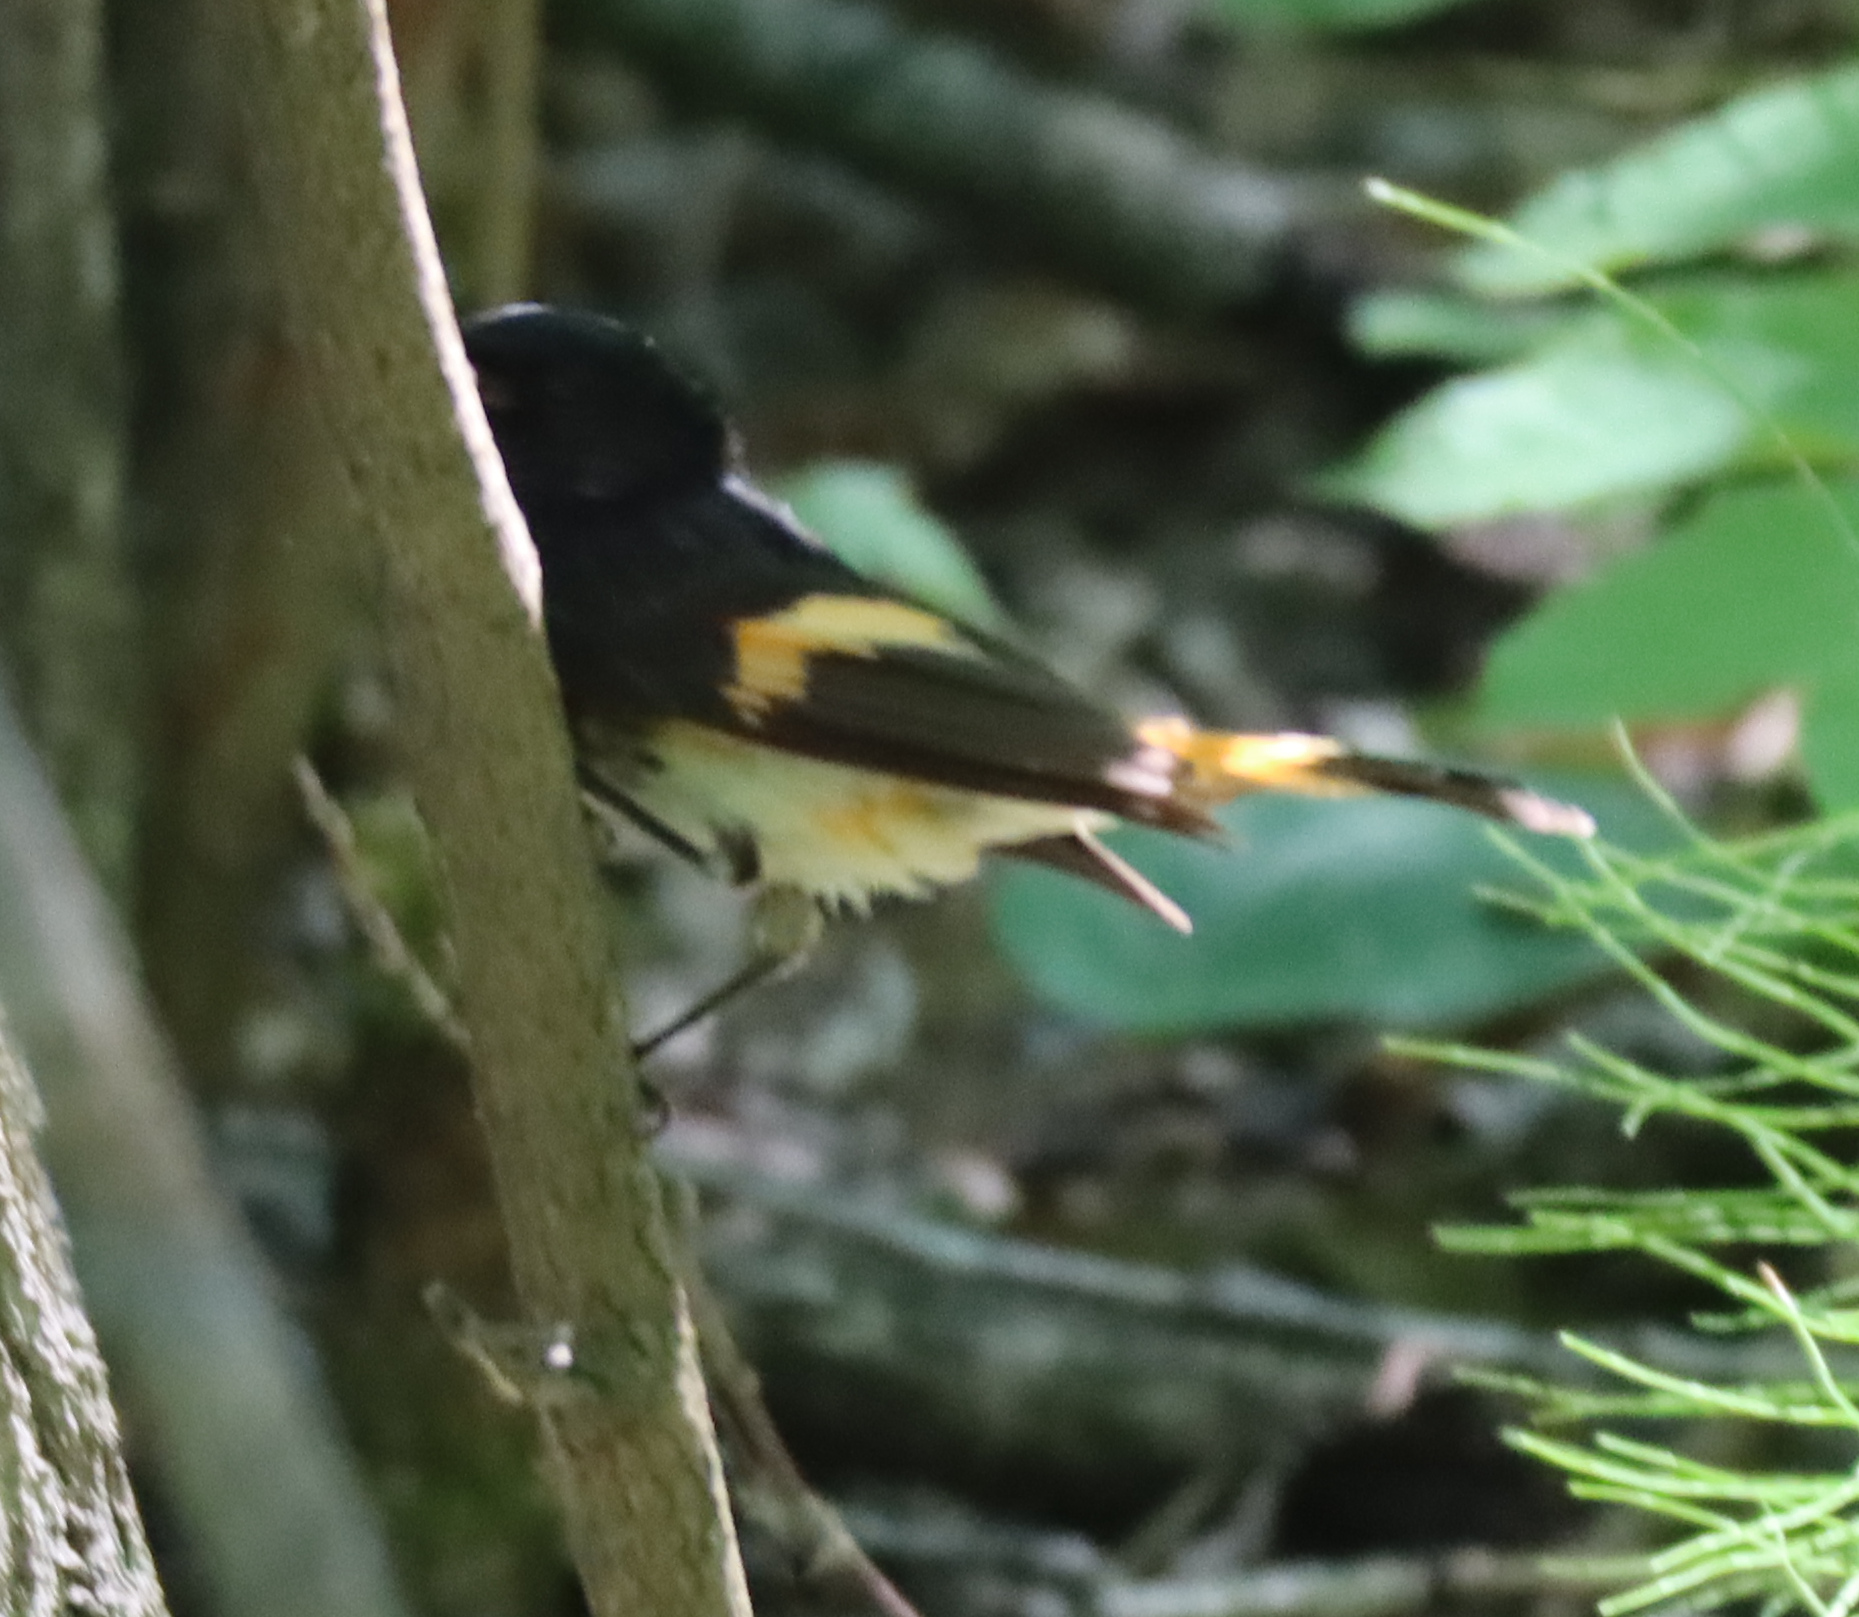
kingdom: Animalia
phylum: Chordata
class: Aves
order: Passeriformes
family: Parulidae
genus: Setophaga
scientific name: Setophaga ruticilla
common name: American redstart
